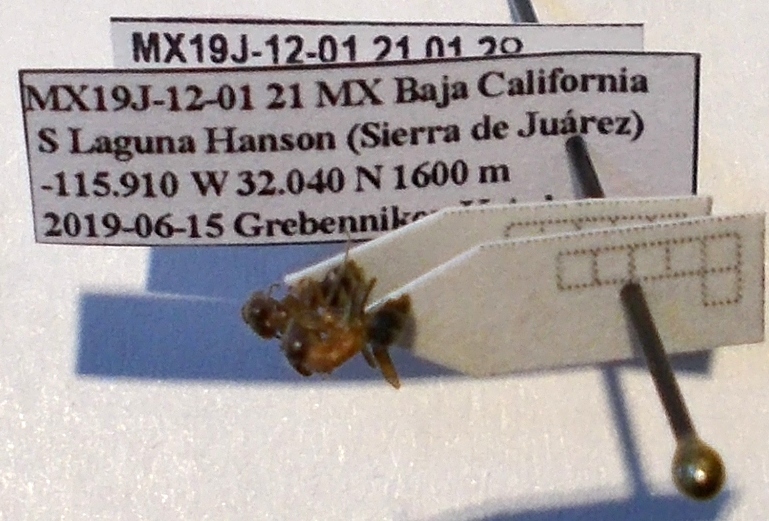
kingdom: Animalia
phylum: Arthropoda
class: Insecta
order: Hymenoptera
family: Formicidae
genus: Liometopum
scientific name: Liometopum occidentale
